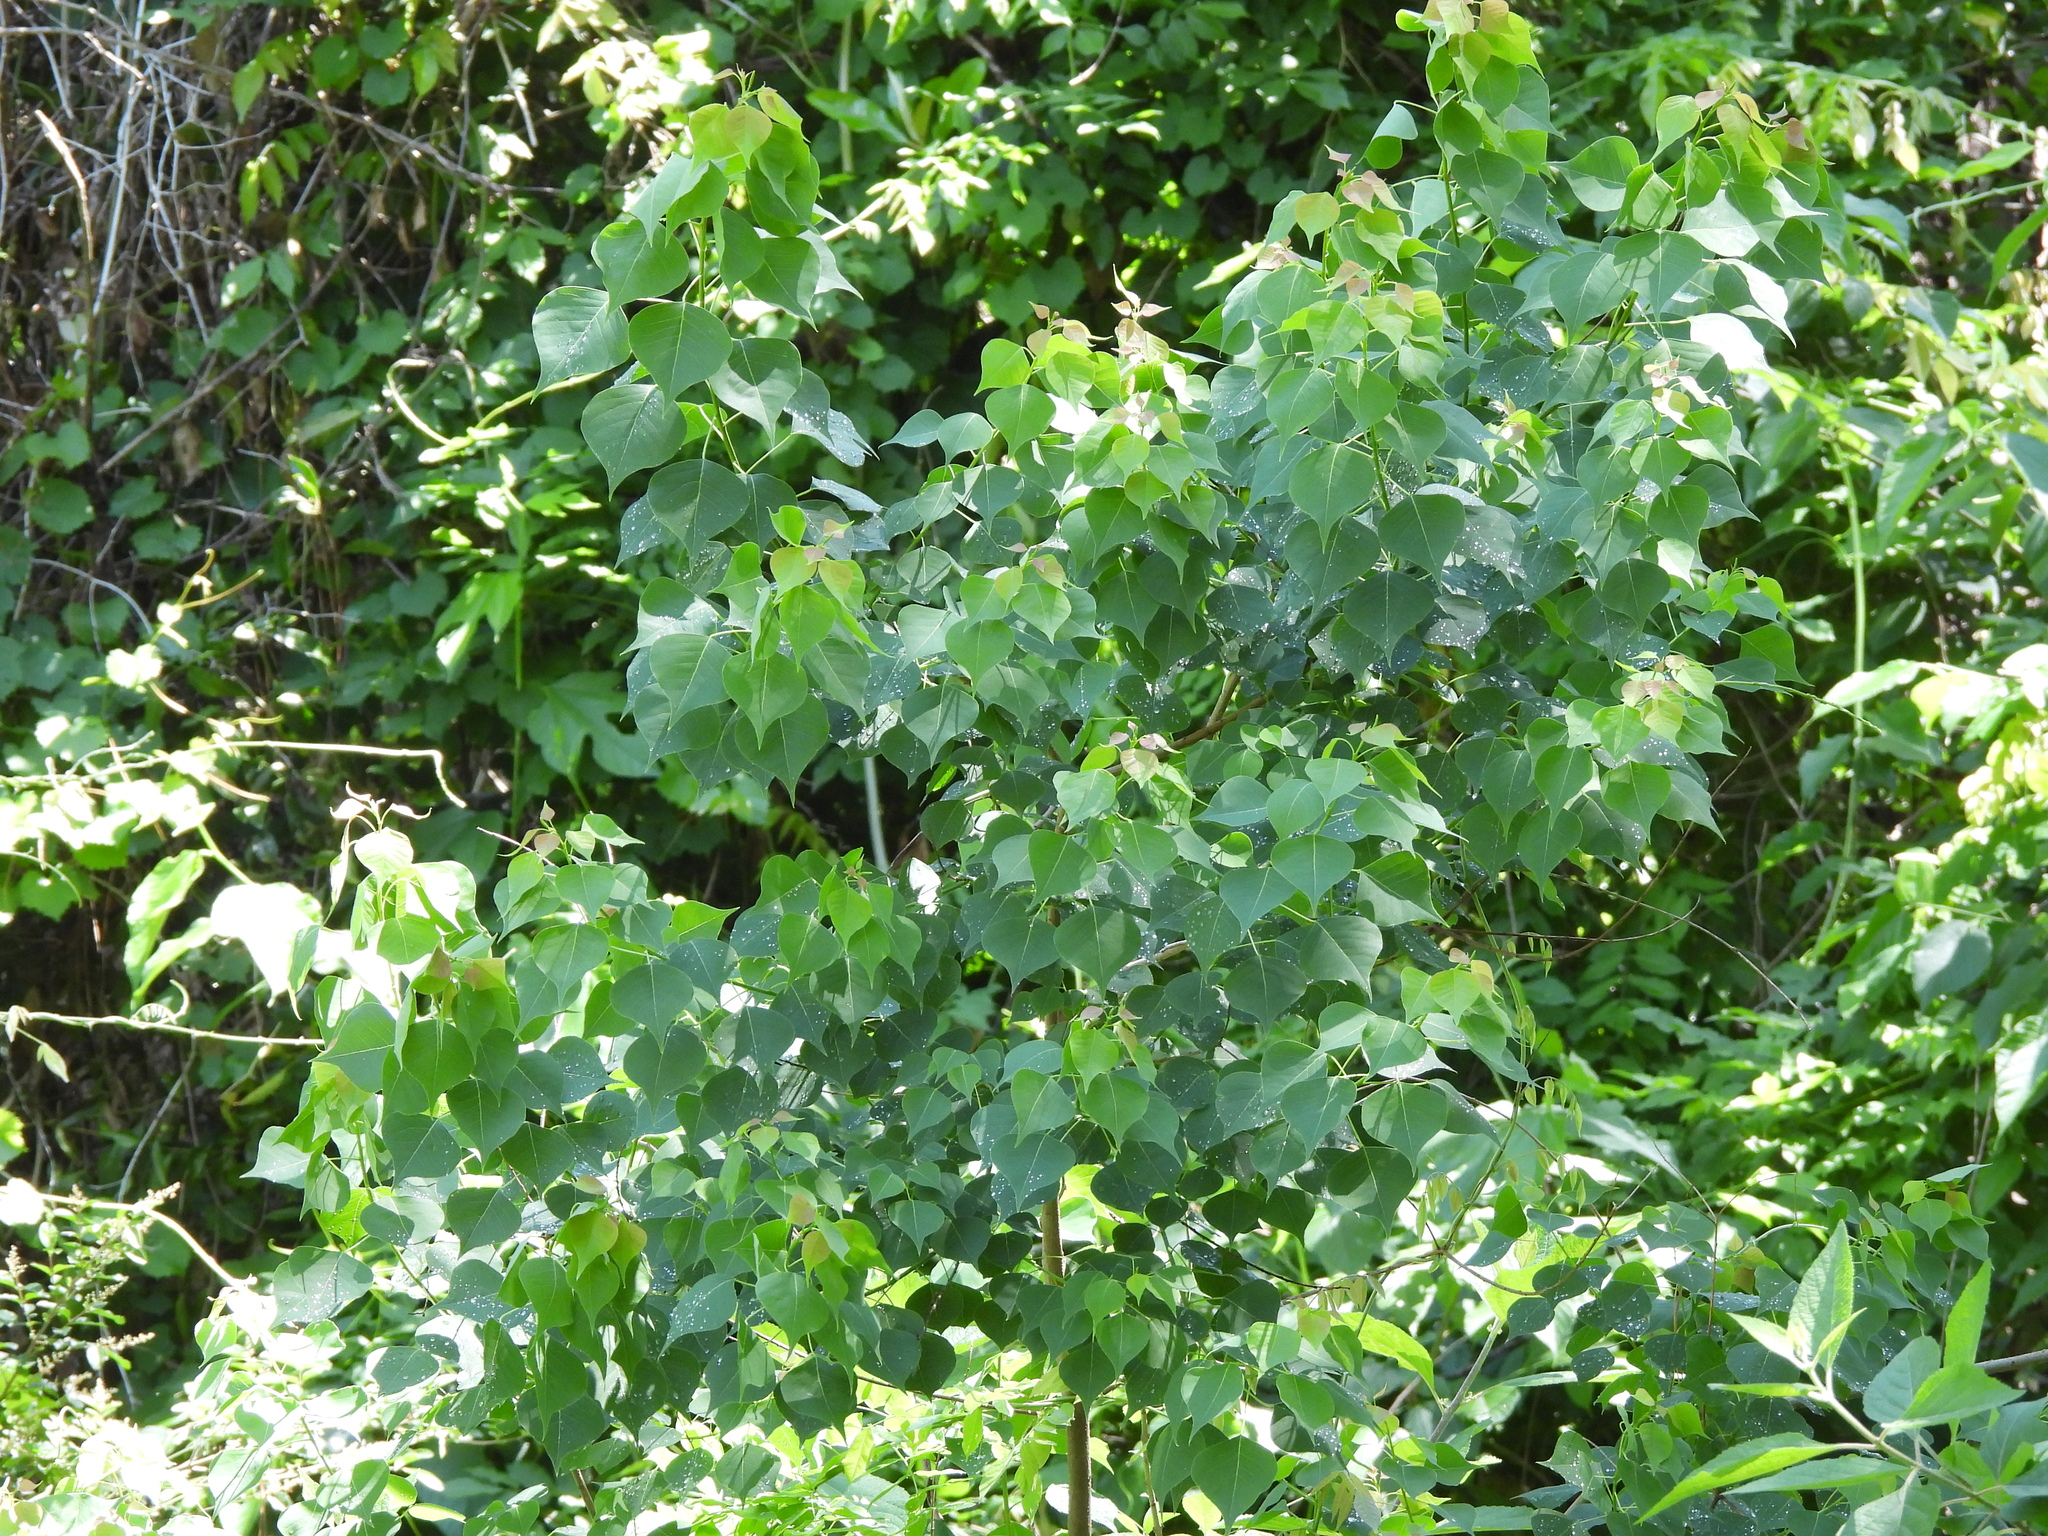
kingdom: Plantae
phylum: Tracheophyta
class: Magnoliopsida
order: Malpighiales
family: Euphorbiaceae
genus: Triadica
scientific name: Triadica sebifera
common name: Chinese tallow
